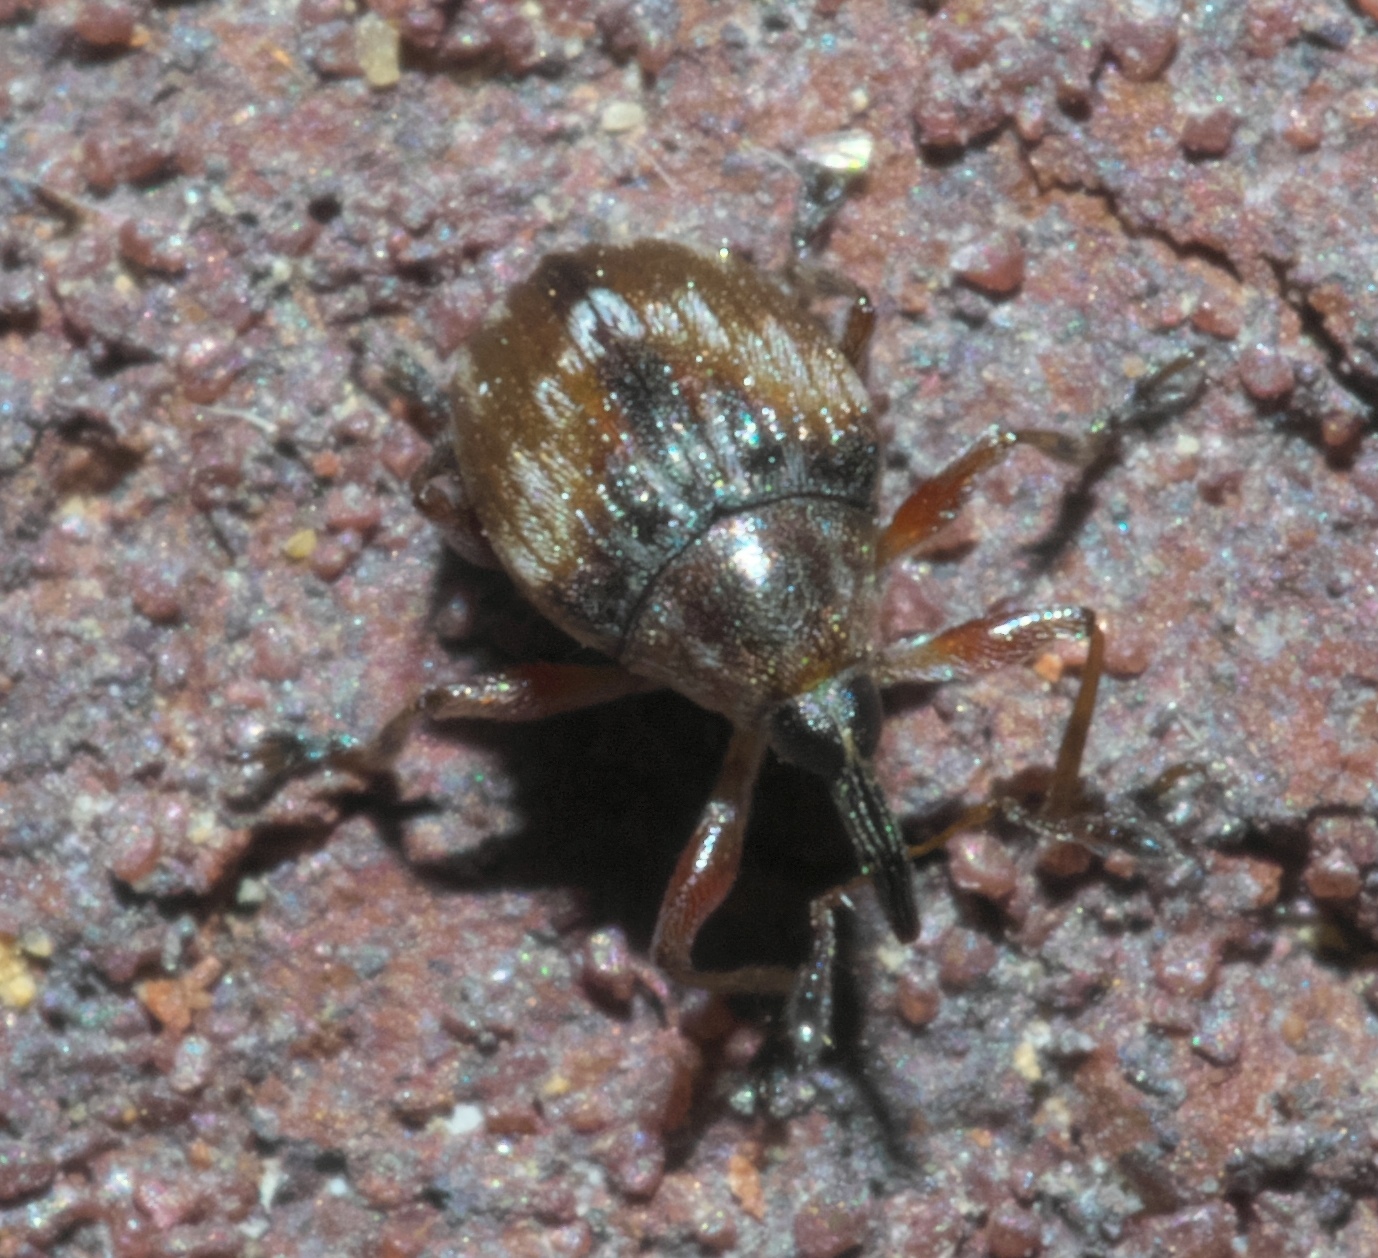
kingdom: Animalia
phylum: Arthropoda
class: Insecta
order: Coleoptera
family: Brentidae
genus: Nanodactylus
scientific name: Nanodactylus
